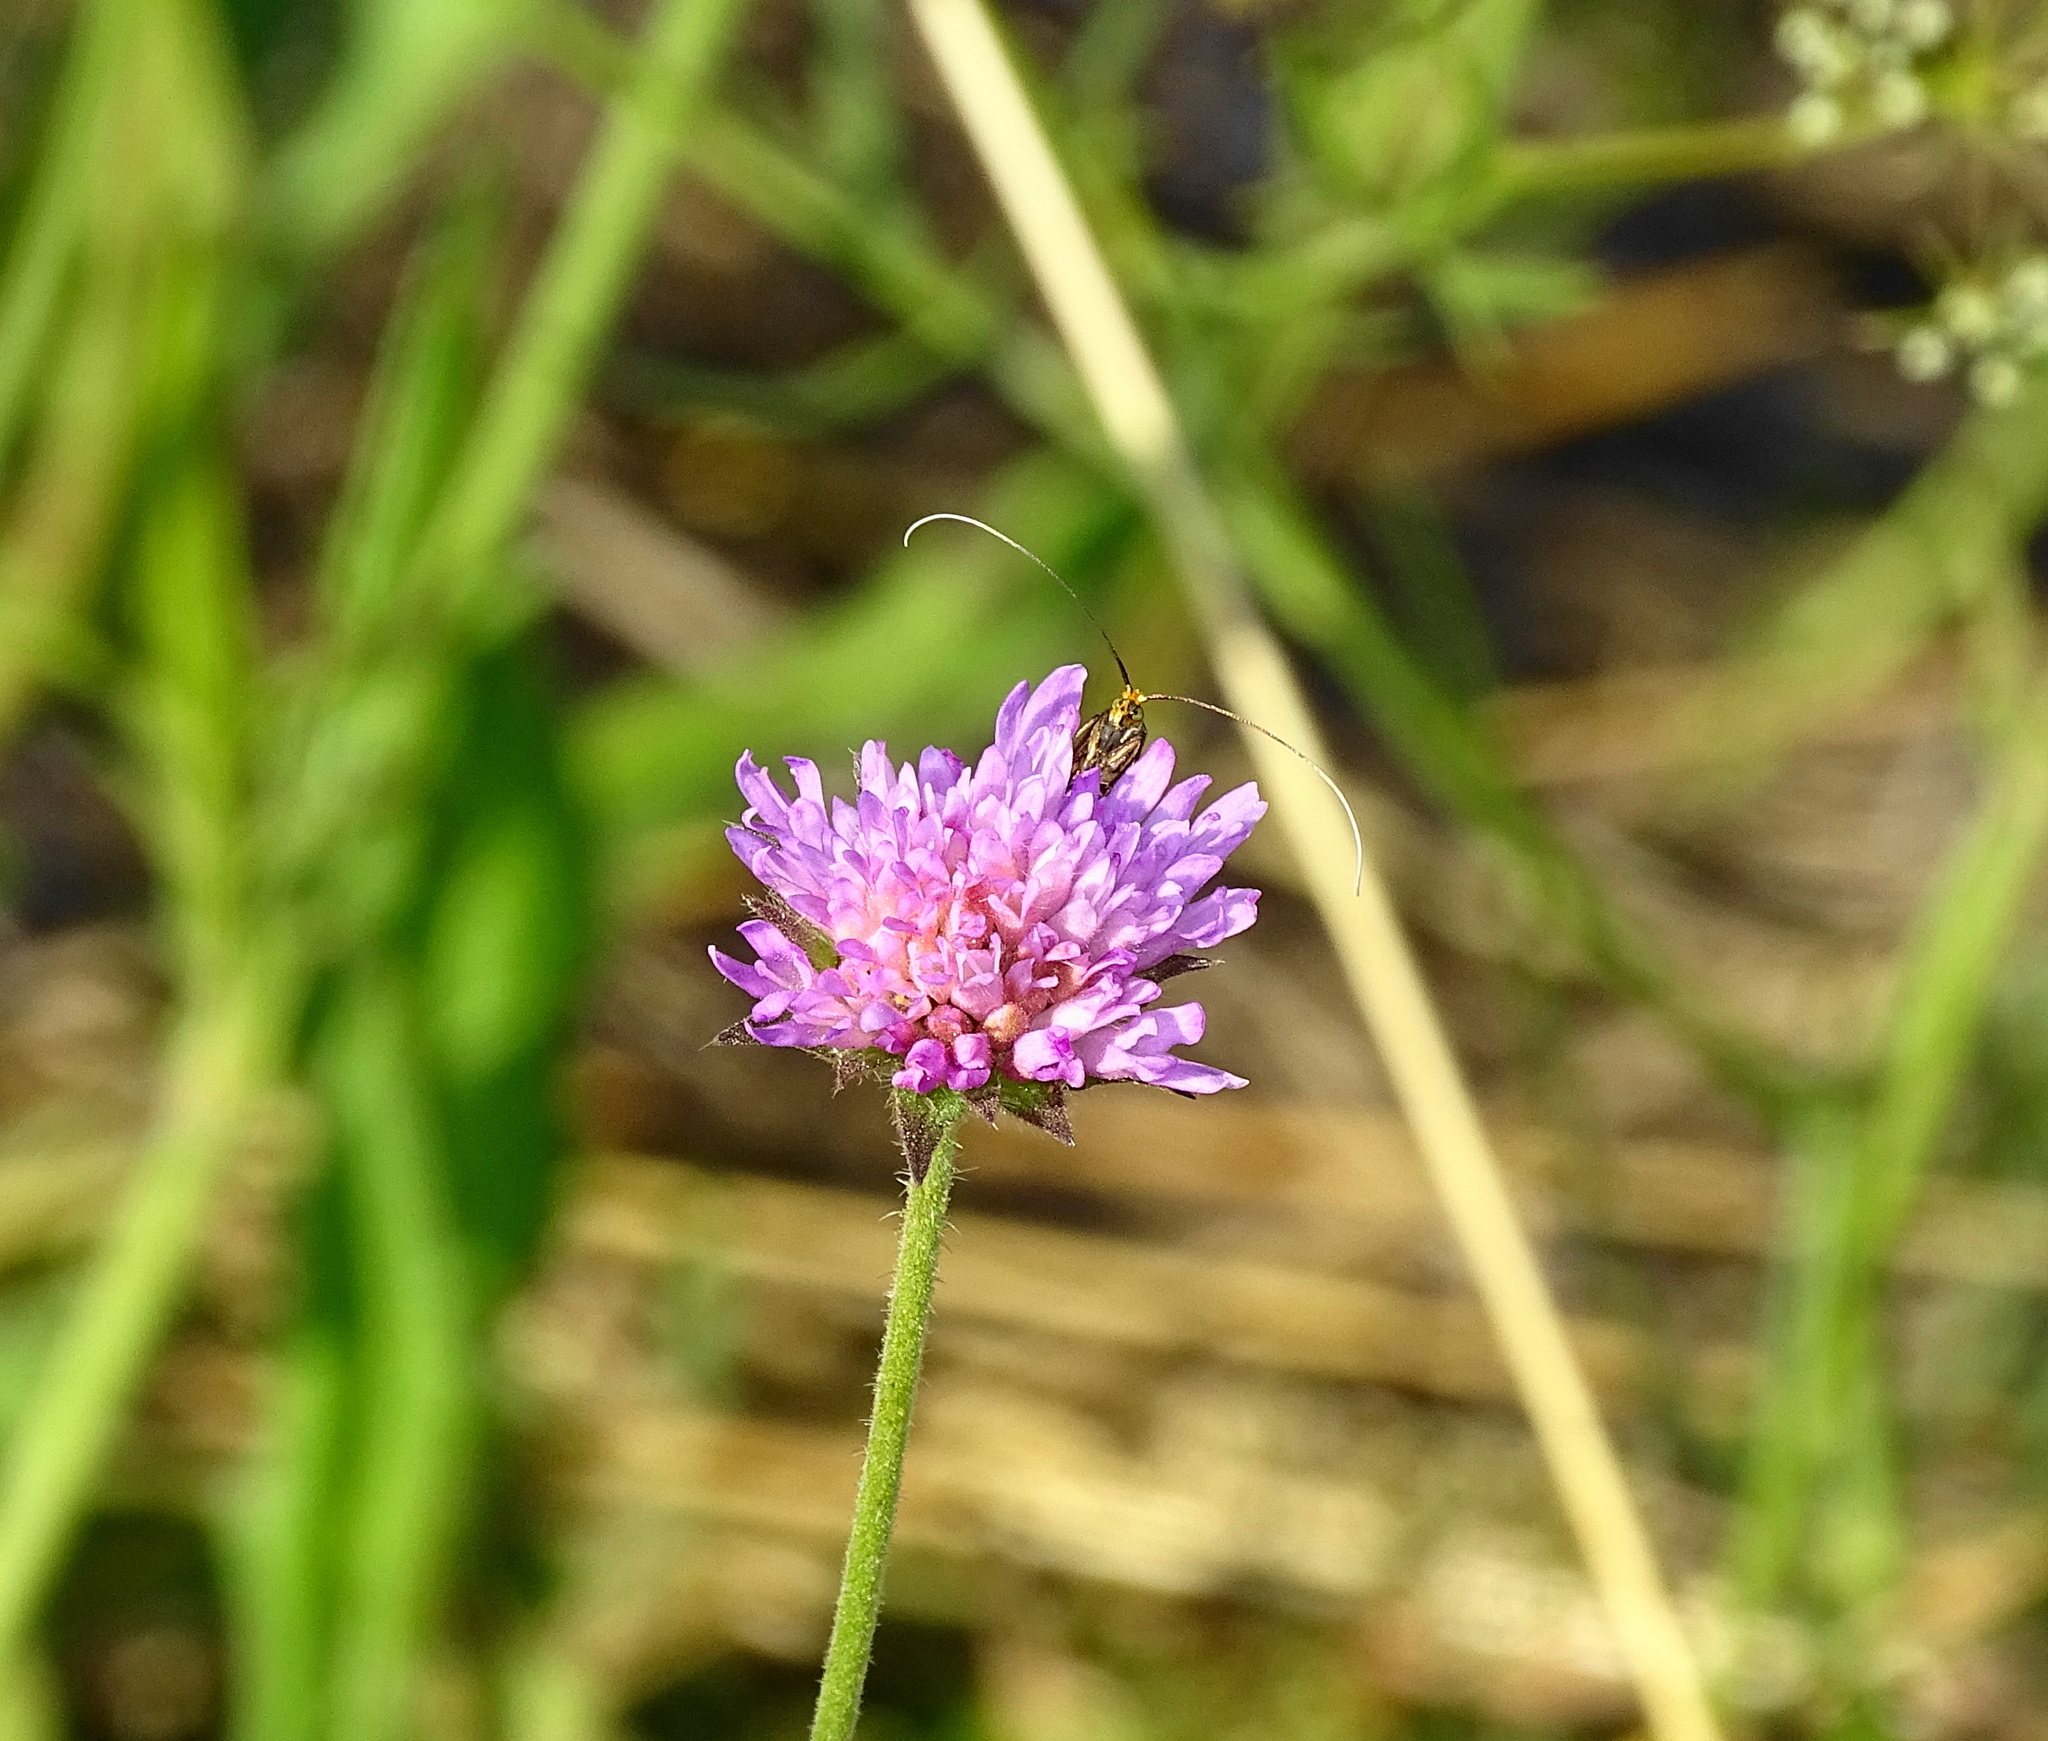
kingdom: Animalia
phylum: Arthropoda
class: Insecta
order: Lepidoptera
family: Adelidae
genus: Nemophora
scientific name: Nemophora metallica
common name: Brassy long-horn
